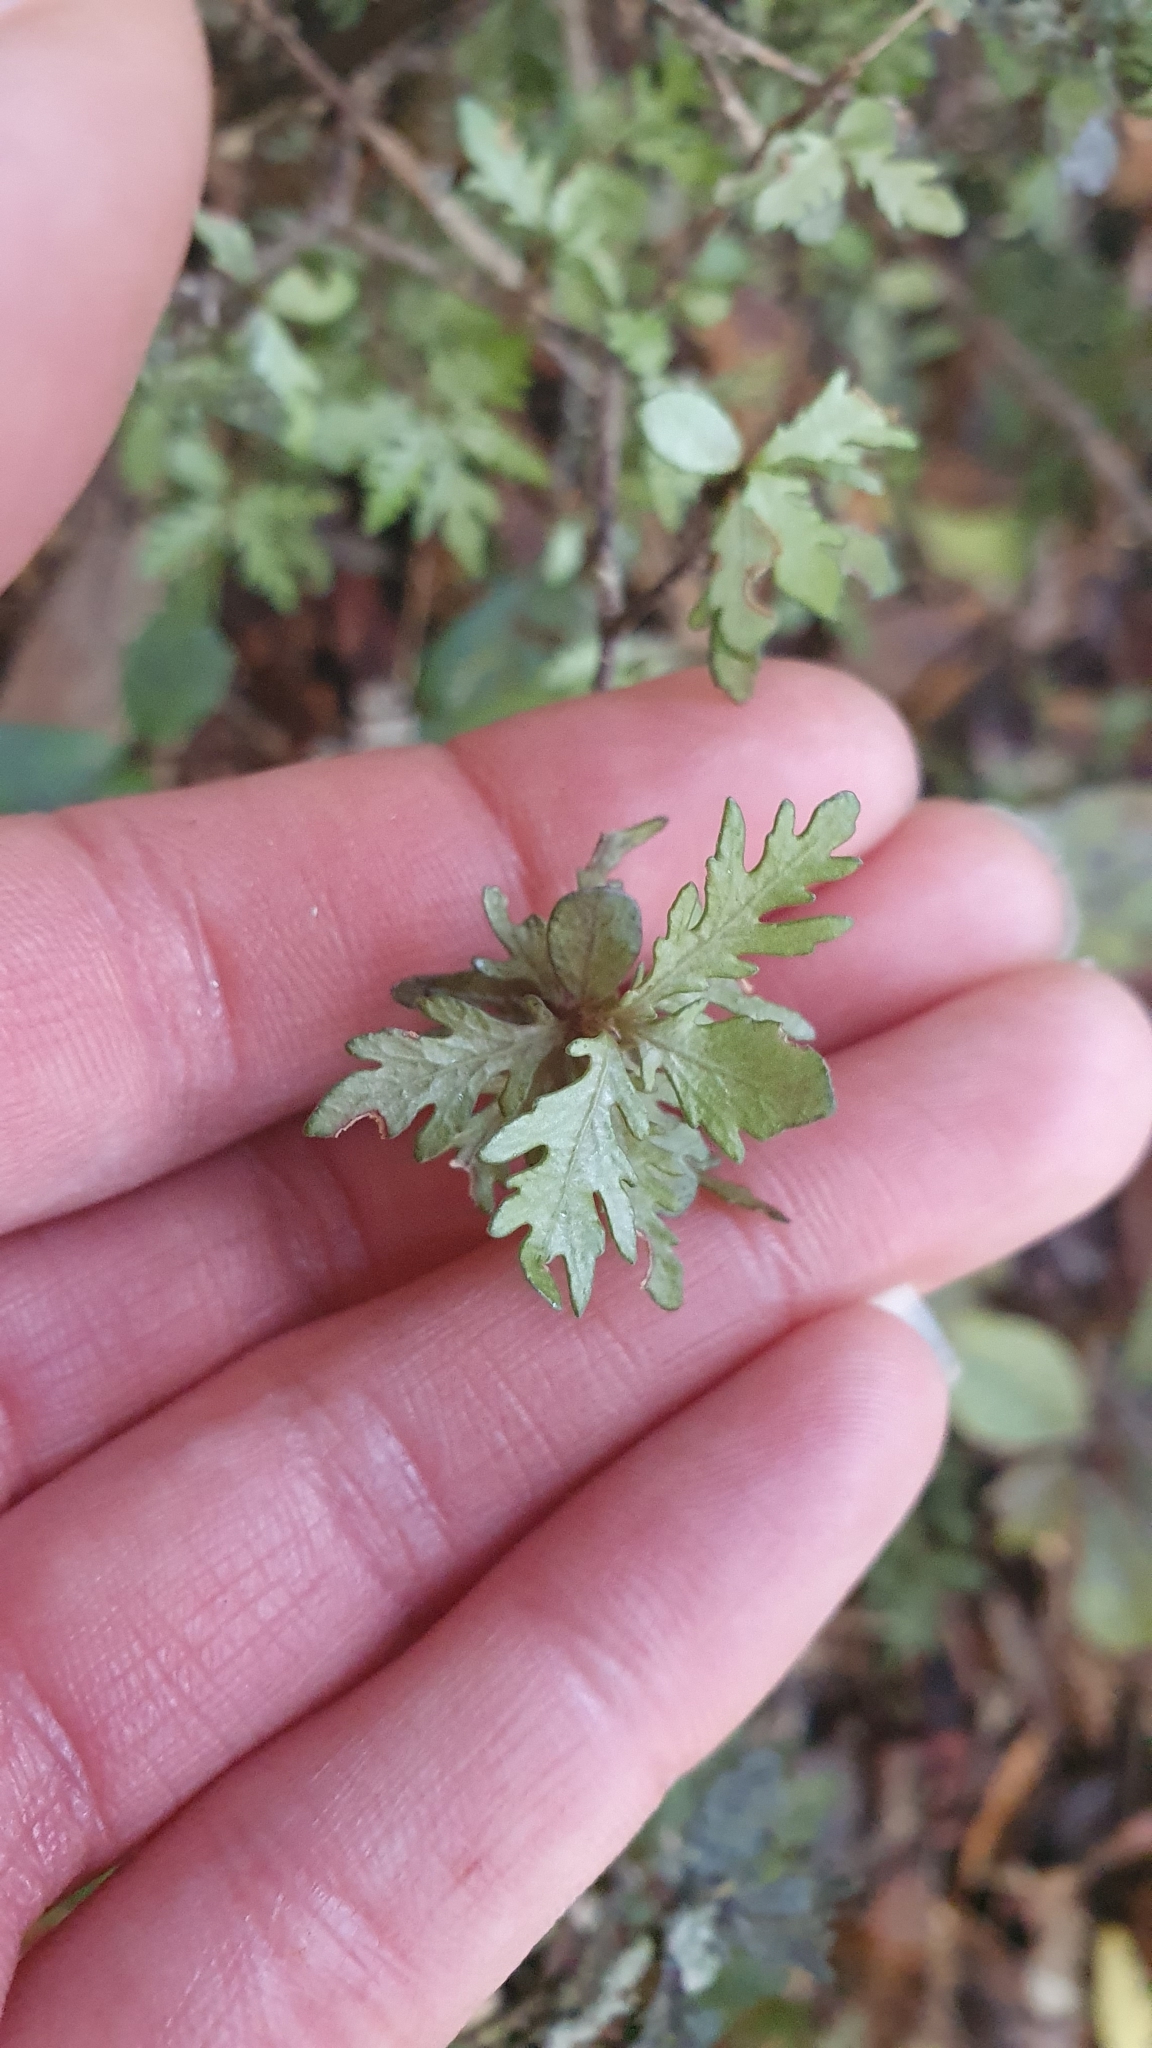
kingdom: Plantae
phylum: Tracheophyta
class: Magnoliopsida
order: Oxalidales
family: Elaeocarpaceae
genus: Elaeocarpus
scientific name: Elaeocarpus hookerianus
